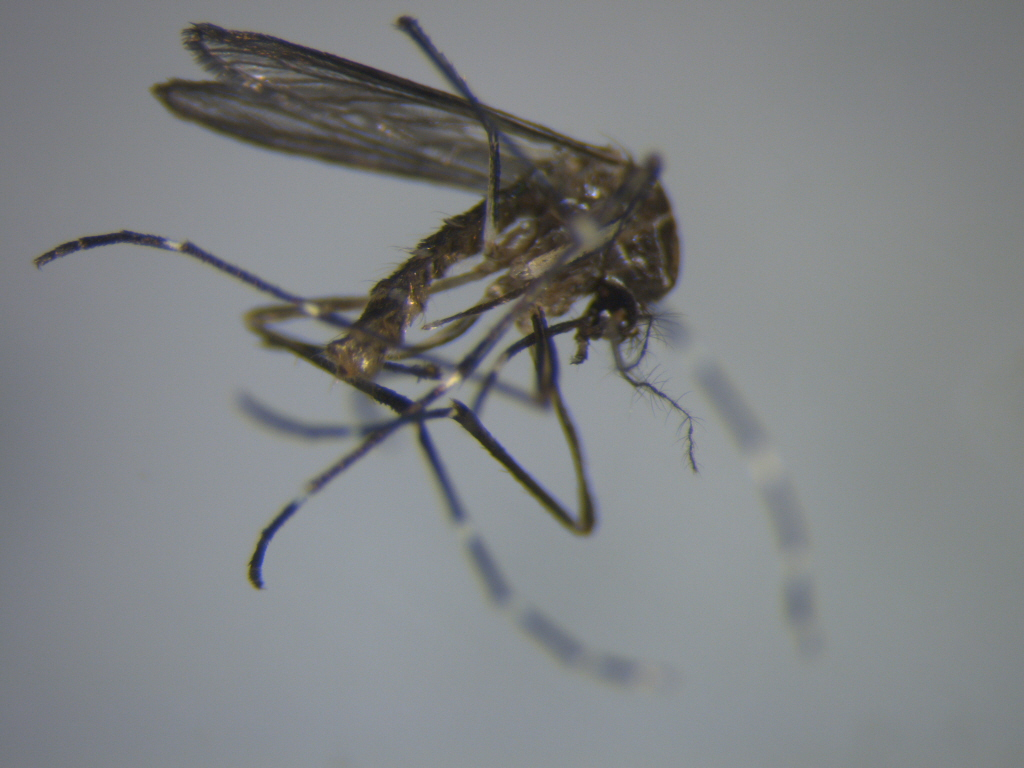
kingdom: Animalia
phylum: Arthropoda
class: Insecta
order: Diptera
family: Culicidae
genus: Aedes
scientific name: Aedes notoscriptus
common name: Australian backyard mosquito
